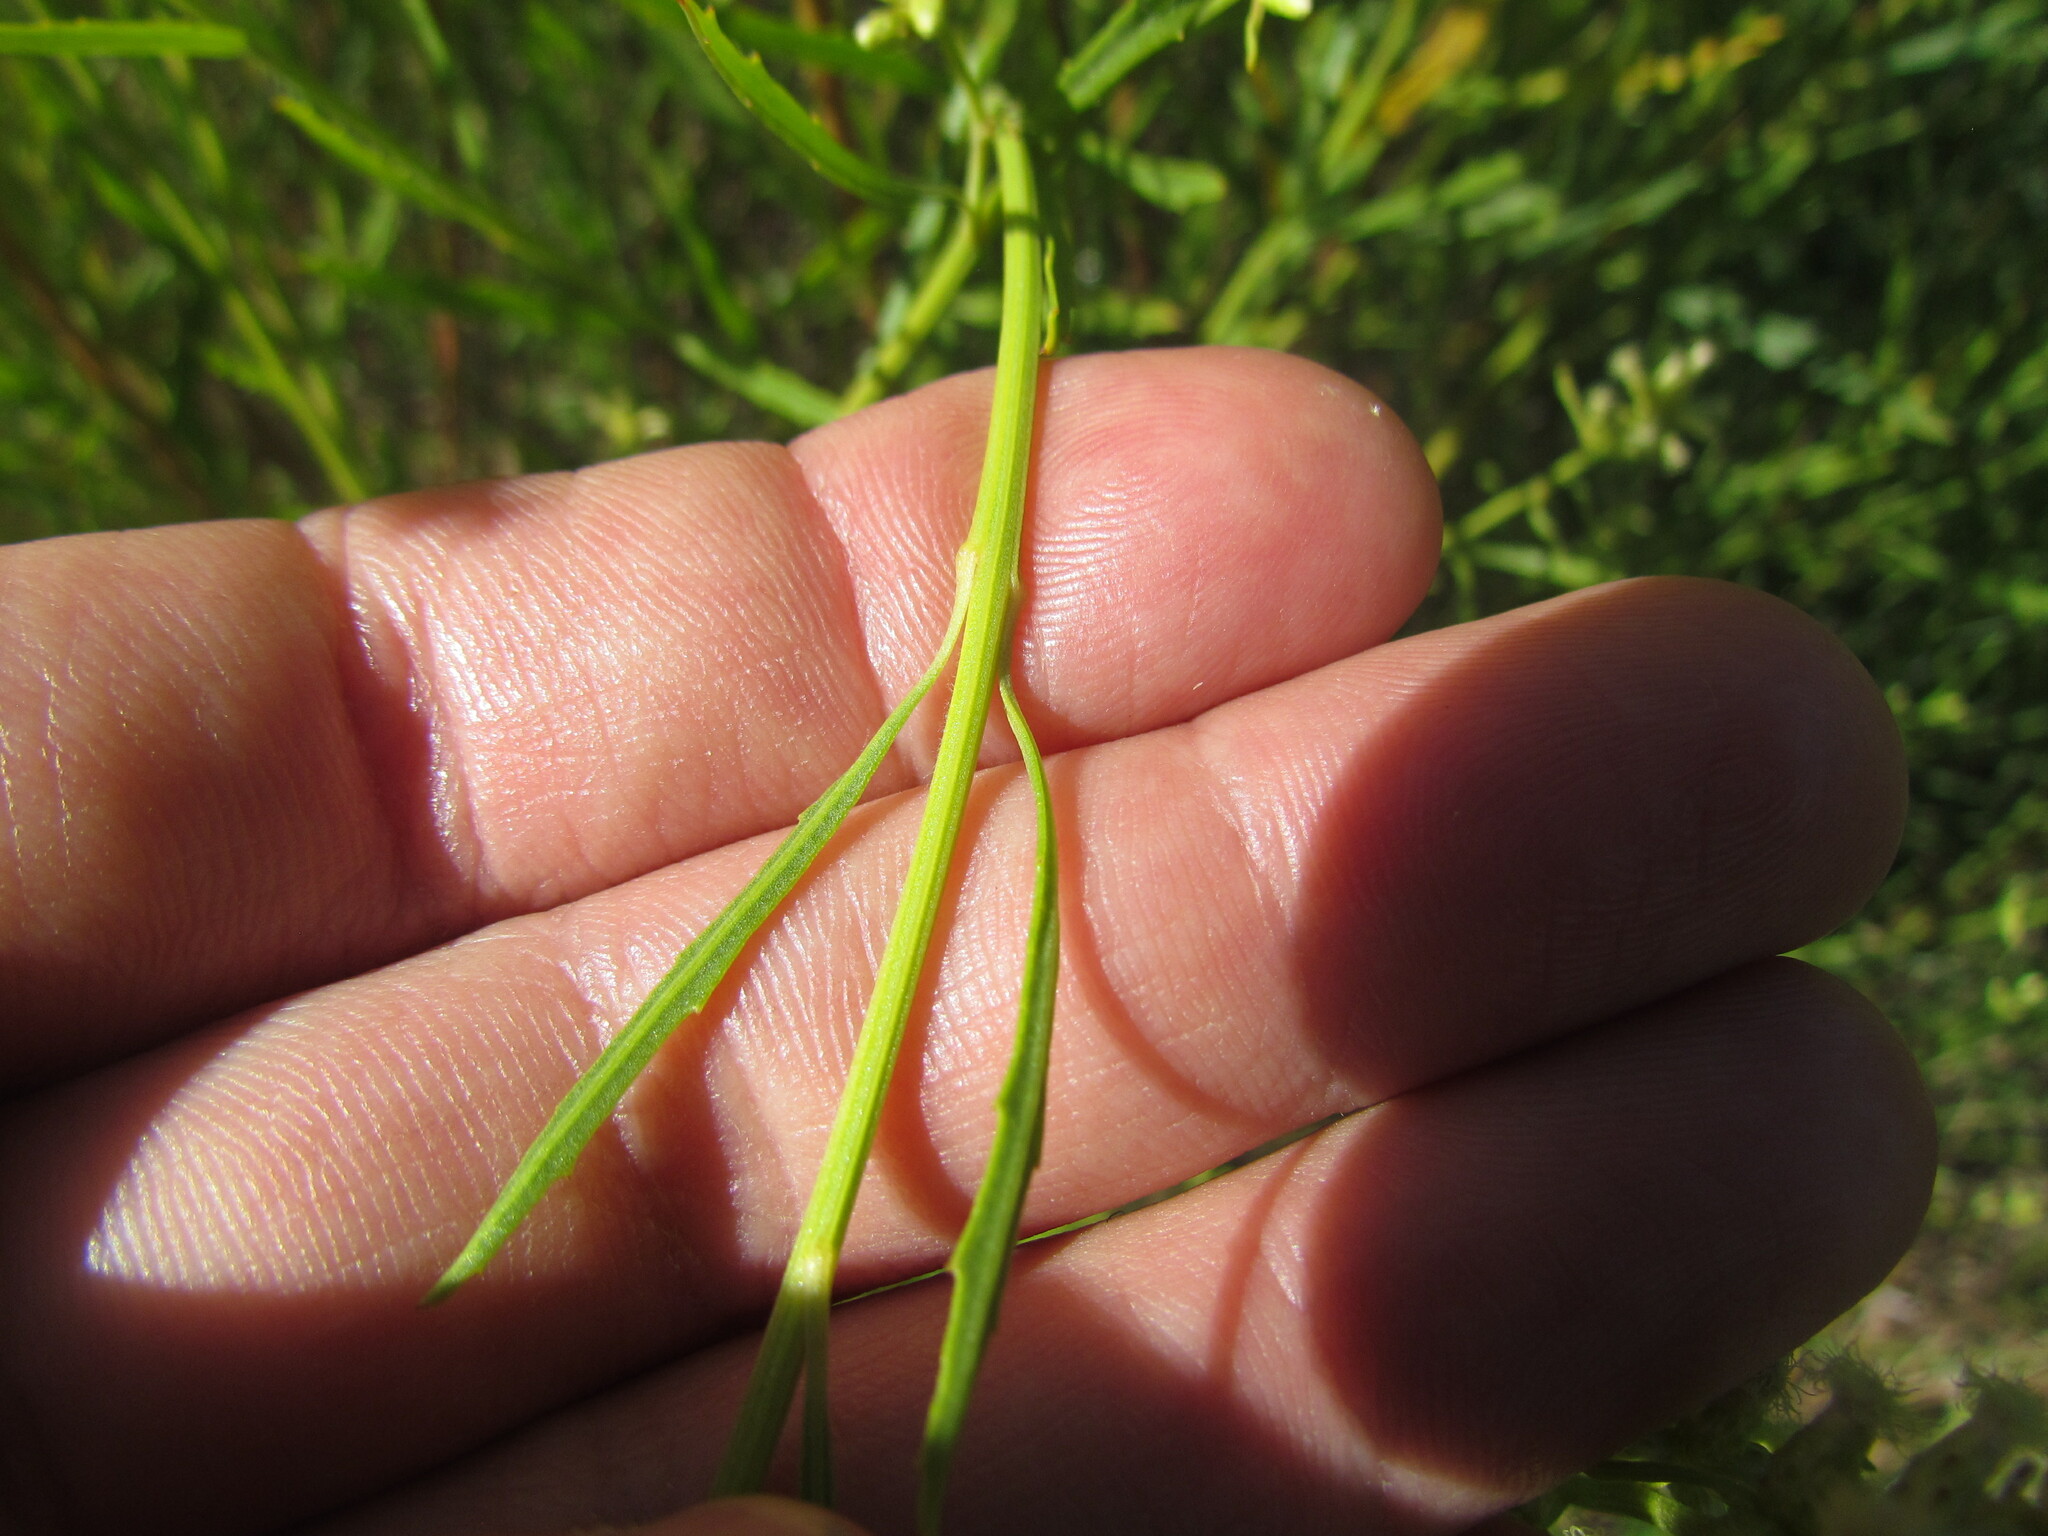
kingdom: Plantae
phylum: Tracheophyta
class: Magnoliopsida
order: Asterales
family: Asteraceae
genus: Baccharis
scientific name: Baccharis spicata
